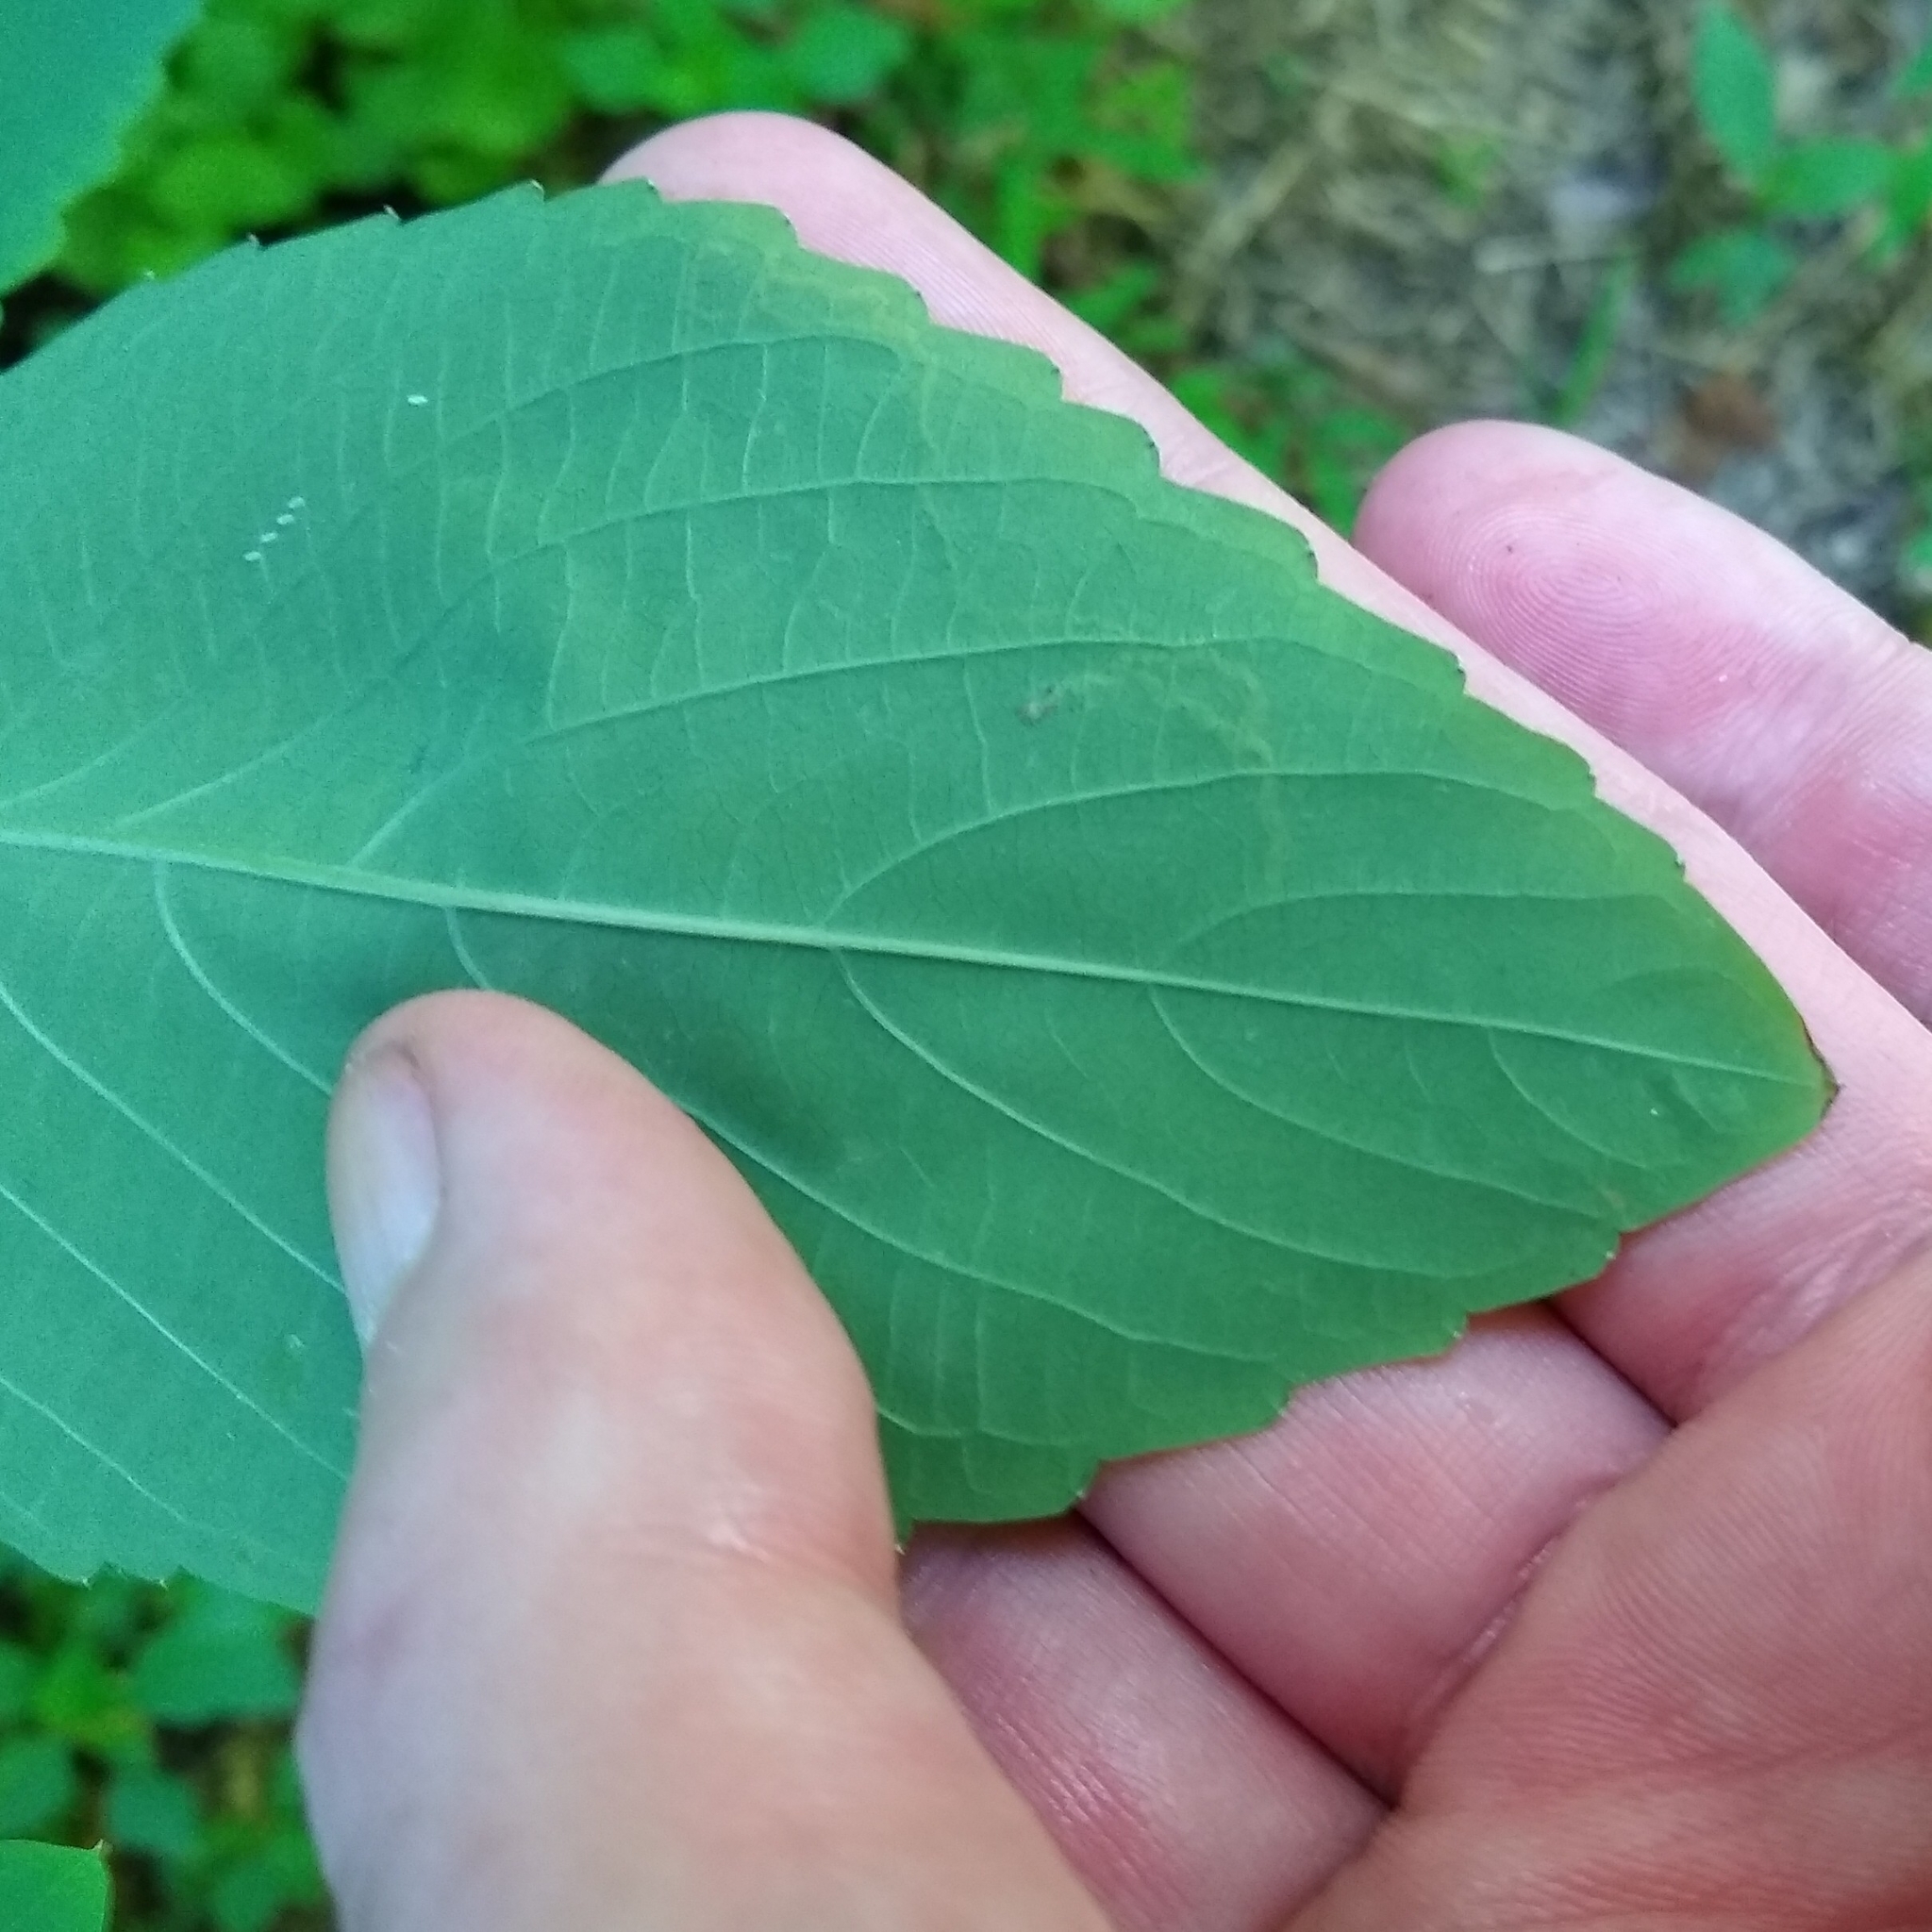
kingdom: Animalia
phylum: Arthropoda
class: Insecta
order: Diptera
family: Agromyzidae
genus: Phytoliriomyza
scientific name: Phytoliriomyza melampyga
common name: Jewelweed leaf-miner fly
